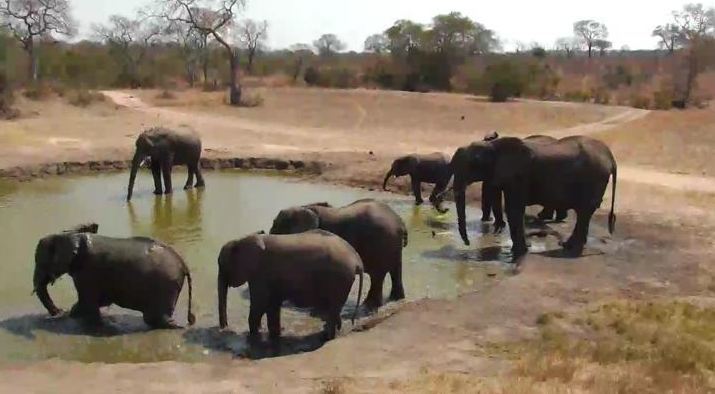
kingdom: Animalia
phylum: Chordata
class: Mammalia
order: Proboscidea
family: Elephantidae
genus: Loxodonta
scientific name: Loxodonta africana
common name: African elephant
